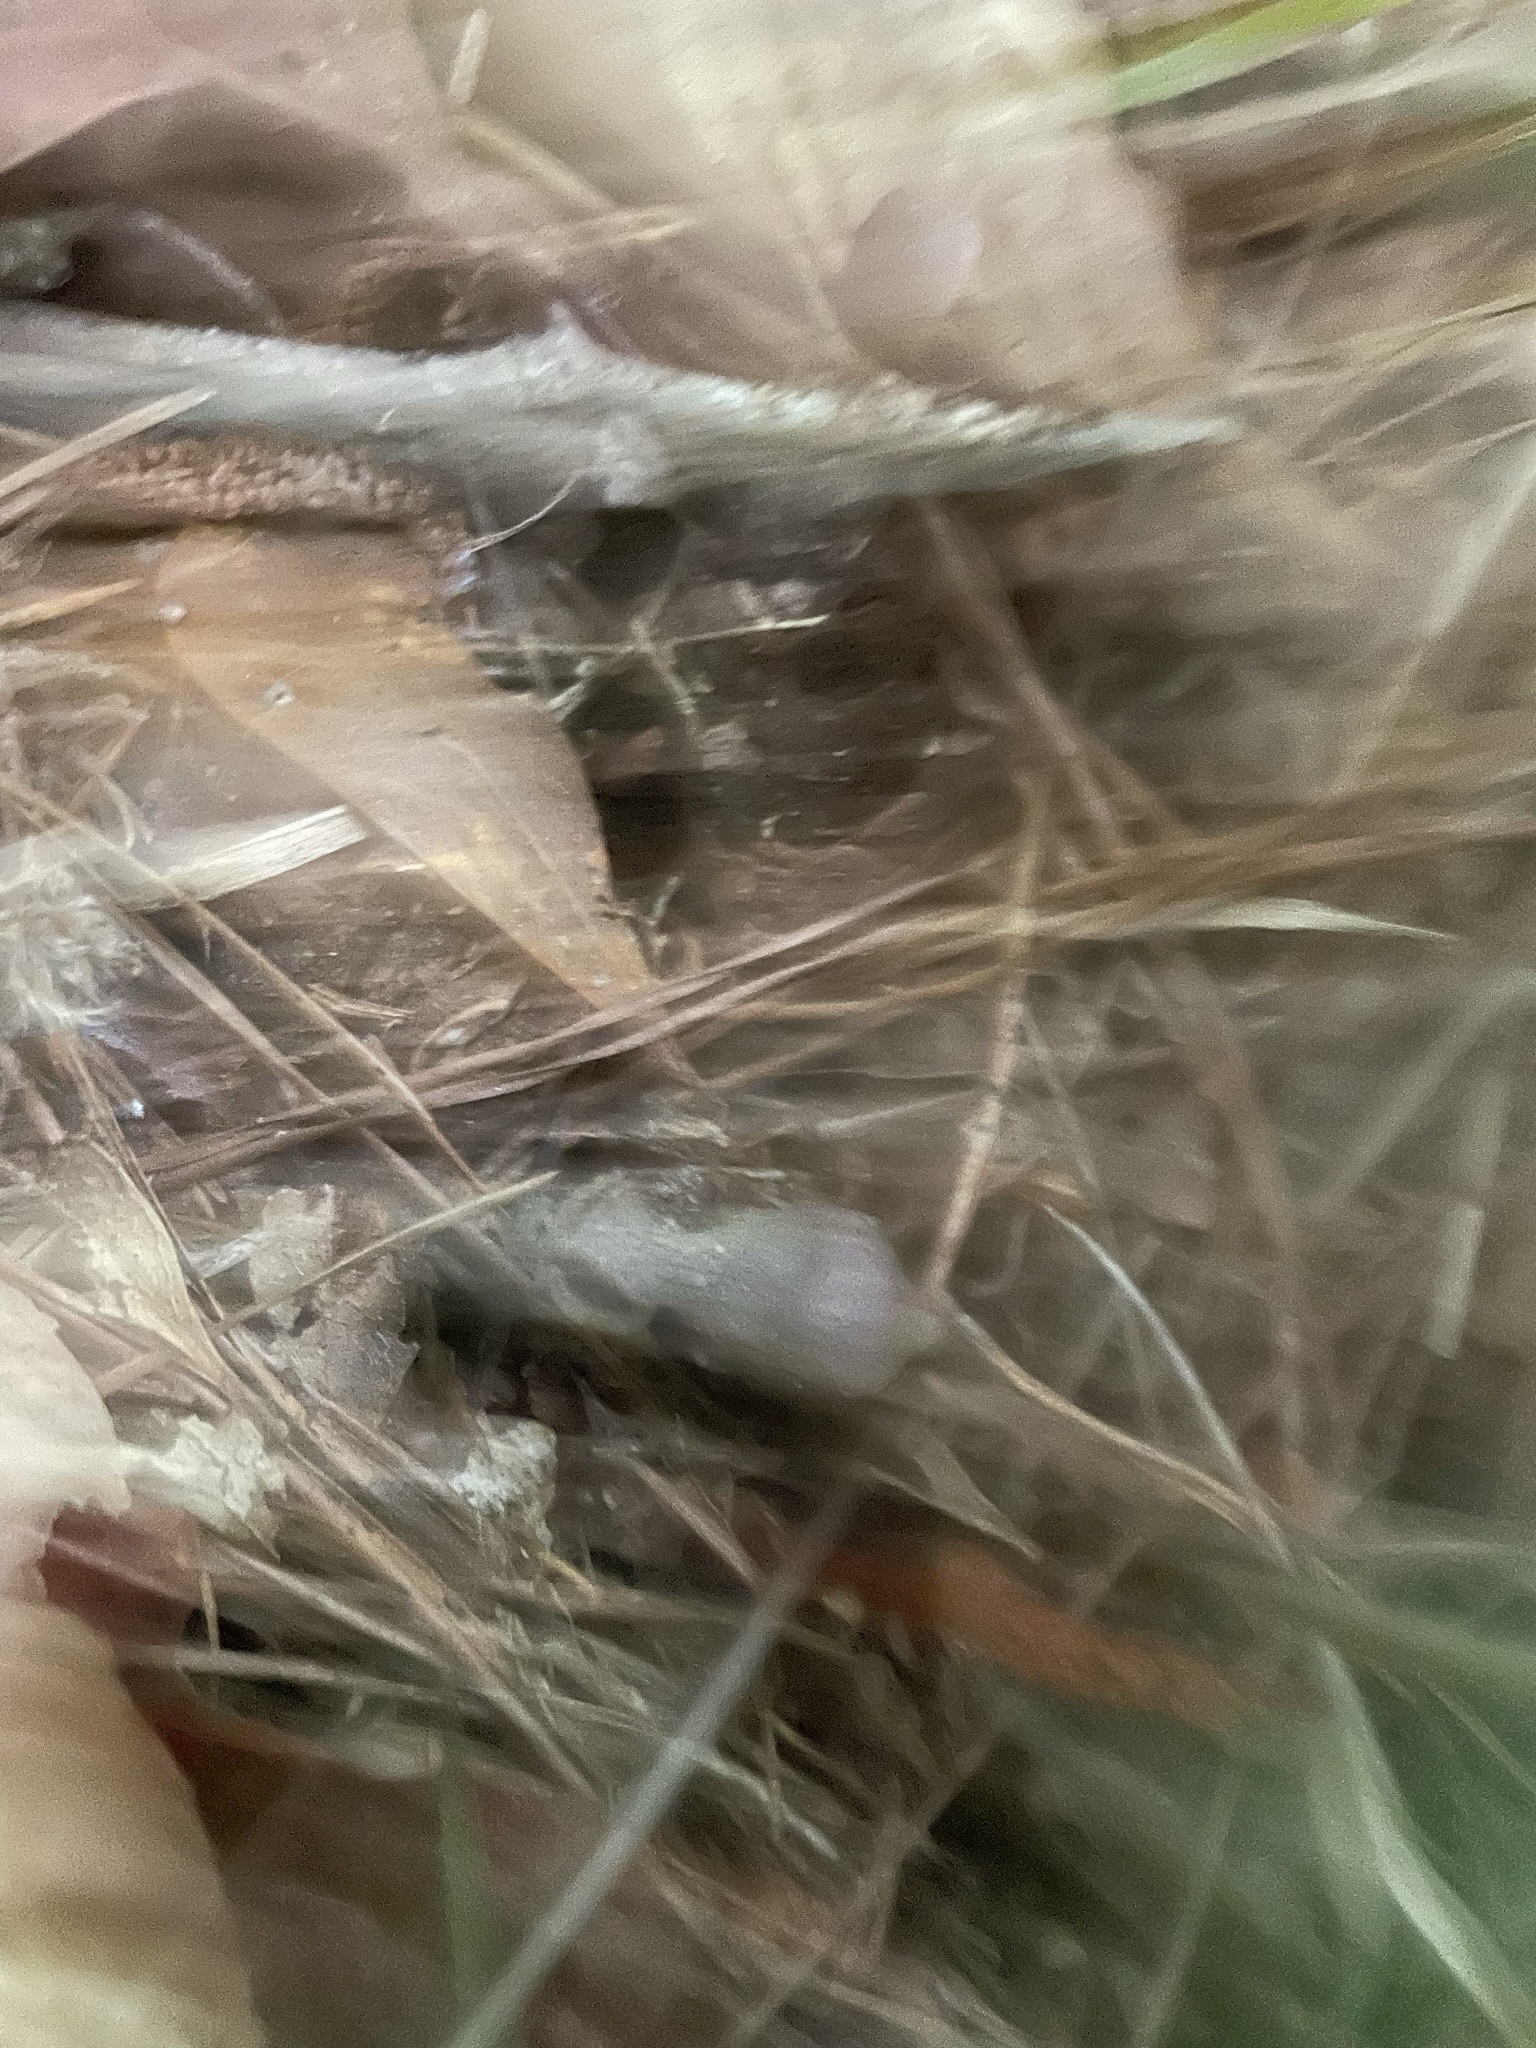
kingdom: Plantae
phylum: Tracheophyta
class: Magnoliopsida
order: Piperales
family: Aristolochiaceae
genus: Hexastylis
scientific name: Hexastylis arifolia
